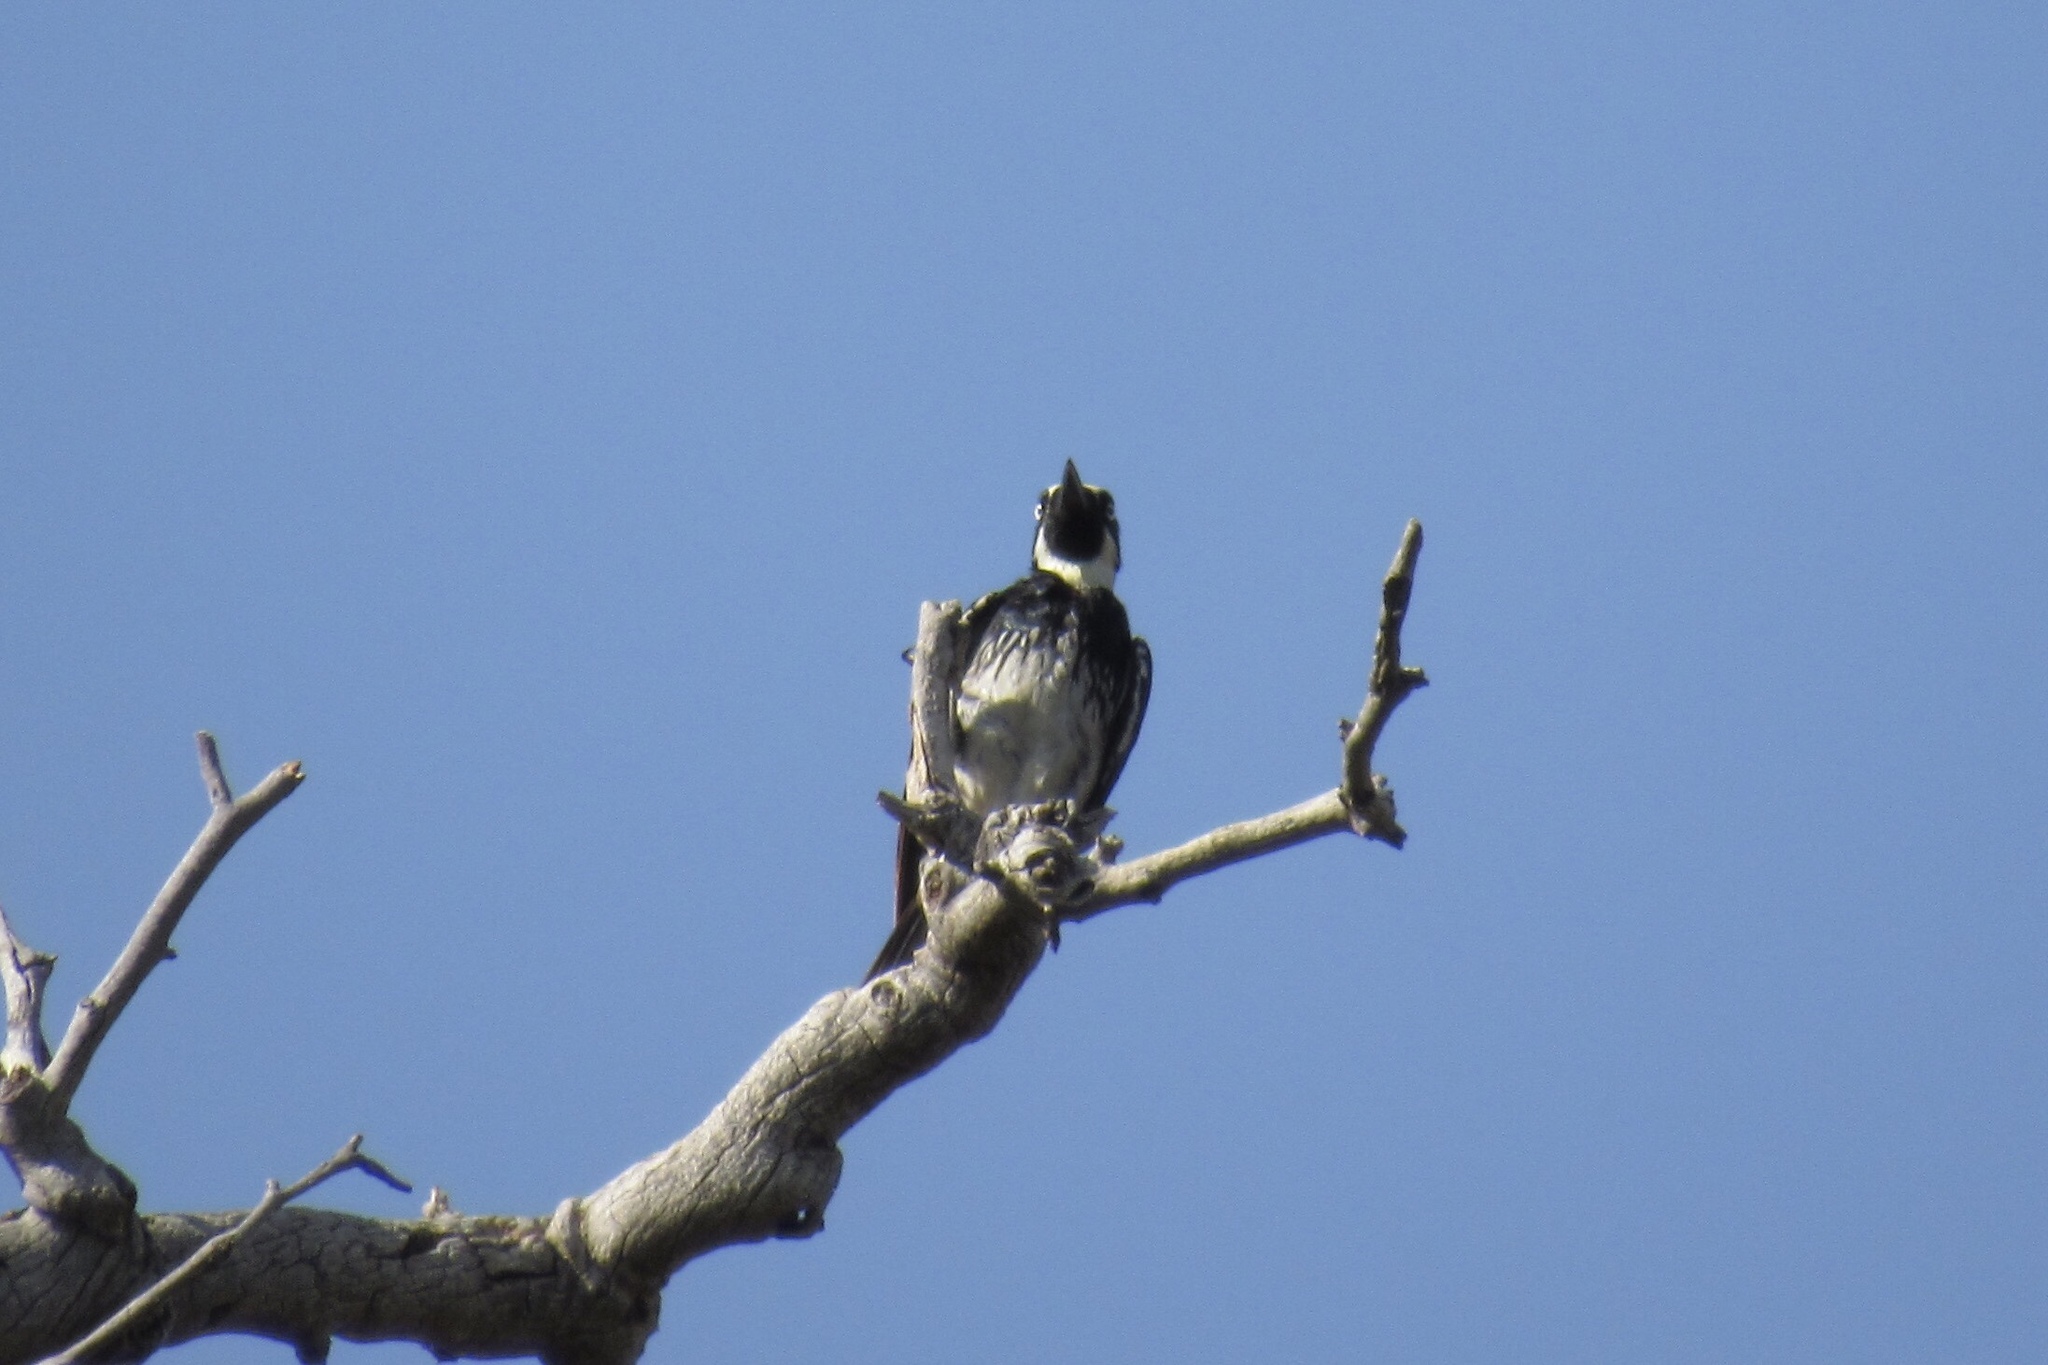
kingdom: Animalia
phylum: Chordata
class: Aves
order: Piciformes
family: Picidae
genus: Melanerpes
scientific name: Melanerpes formicivorus
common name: Acorn woodpecker
